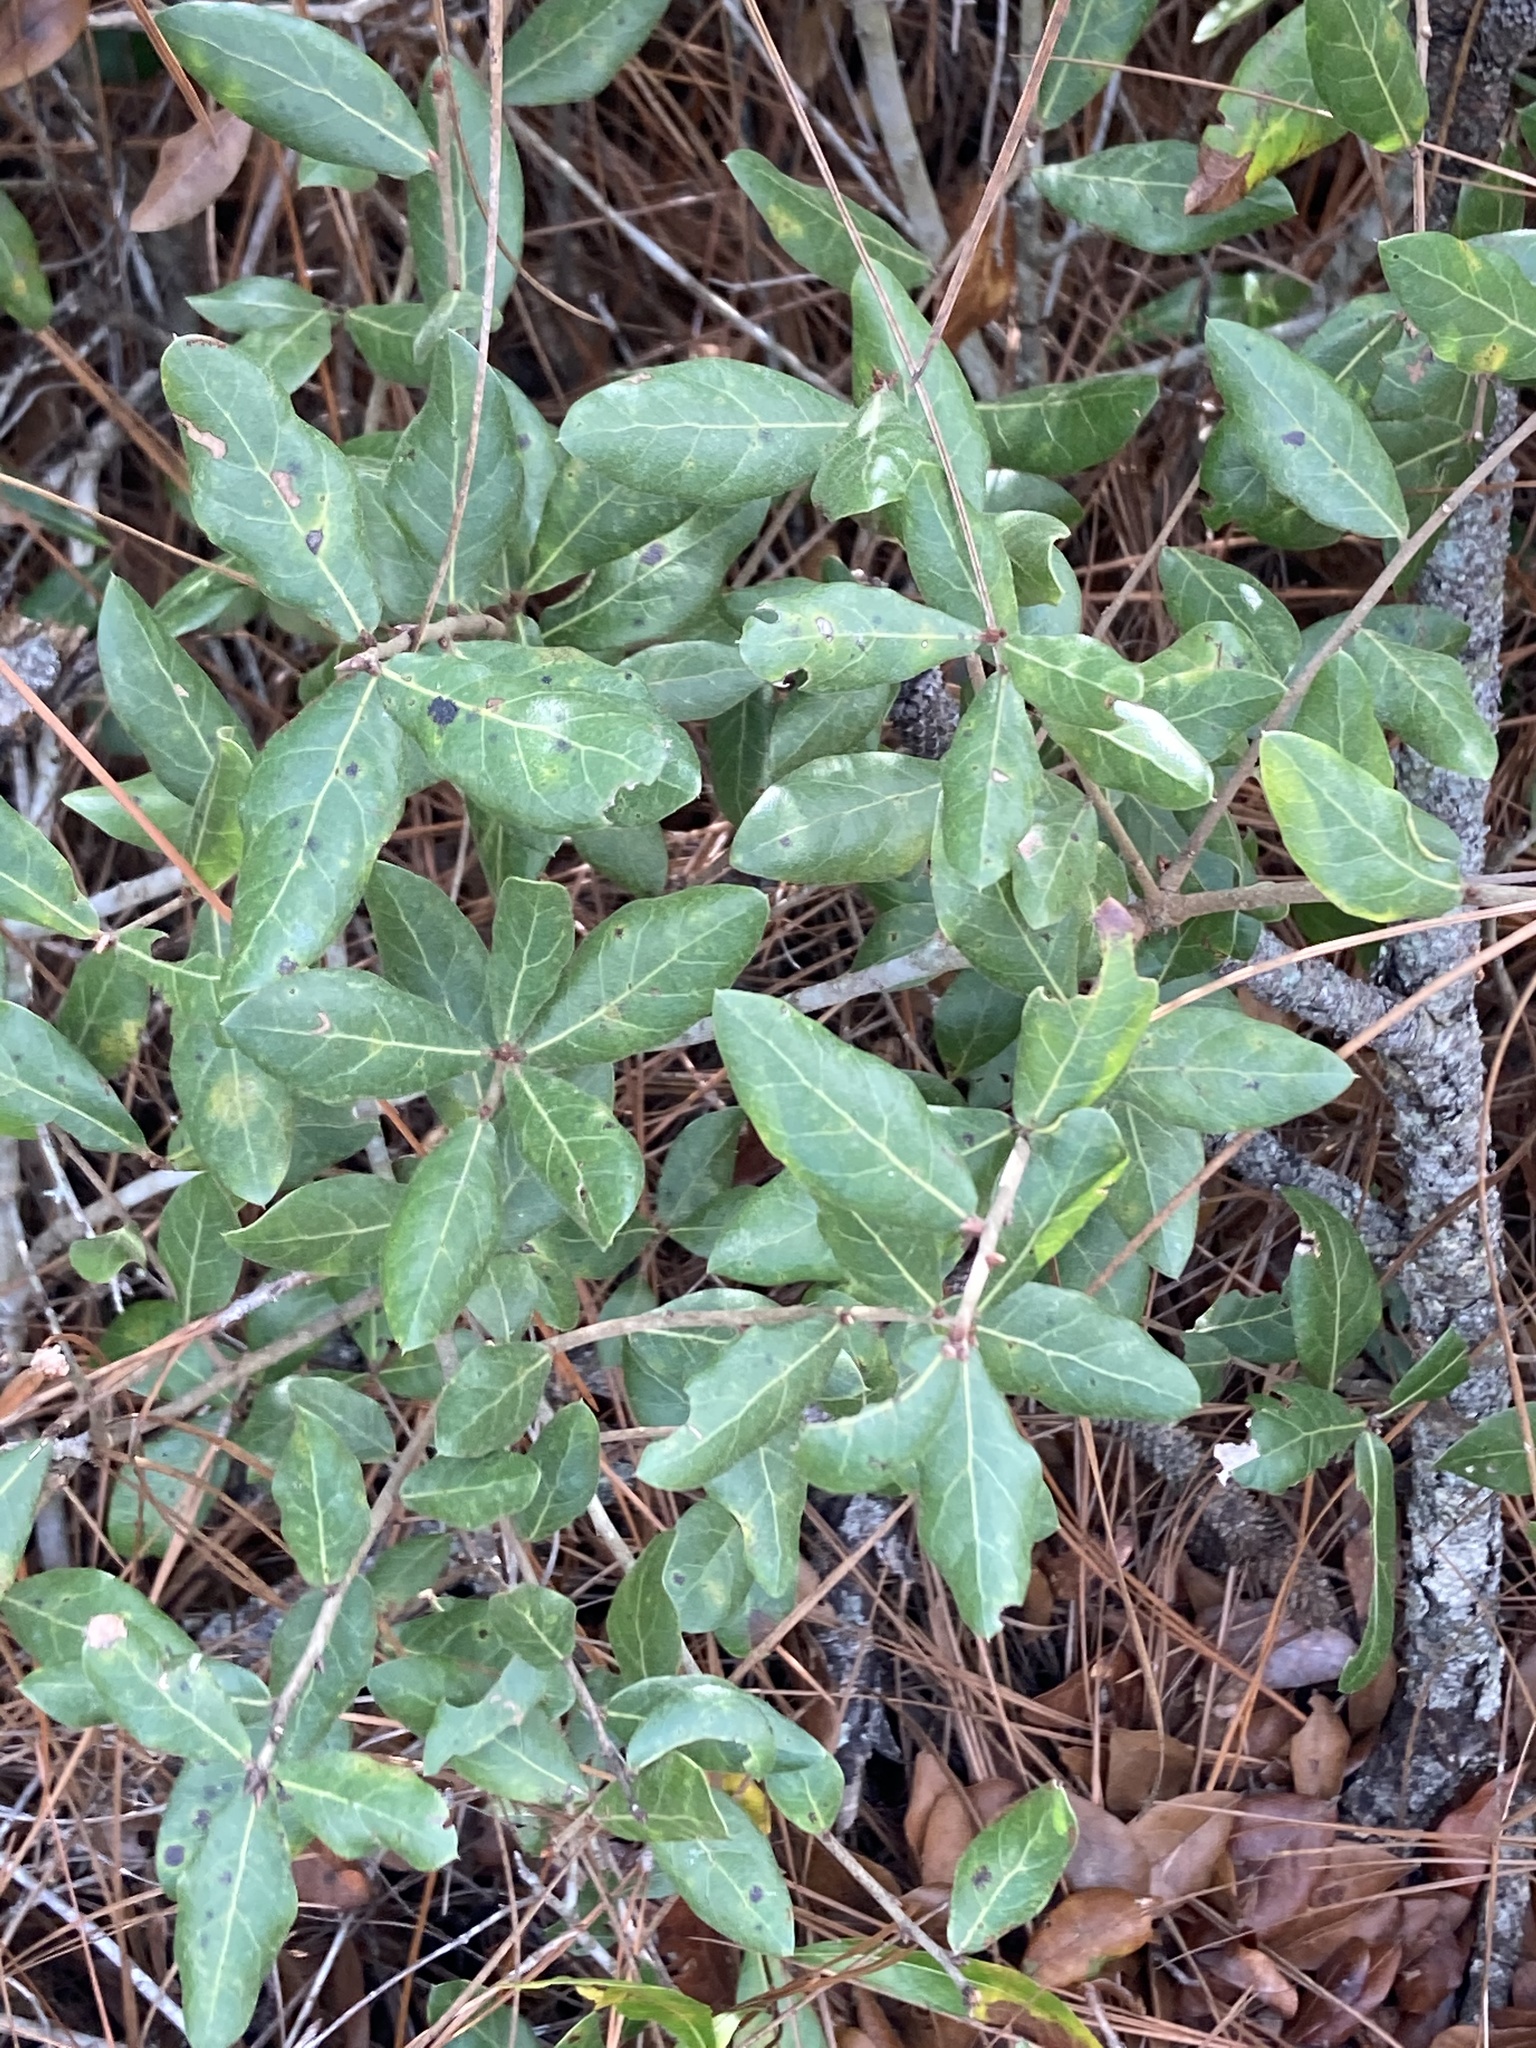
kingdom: Plantae
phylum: Tracheophyta
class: Magnoliopsida
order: Fagales
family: Fagaceae
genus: Quercus
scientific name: Quercus myrtifolia
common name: Myrtle oak
